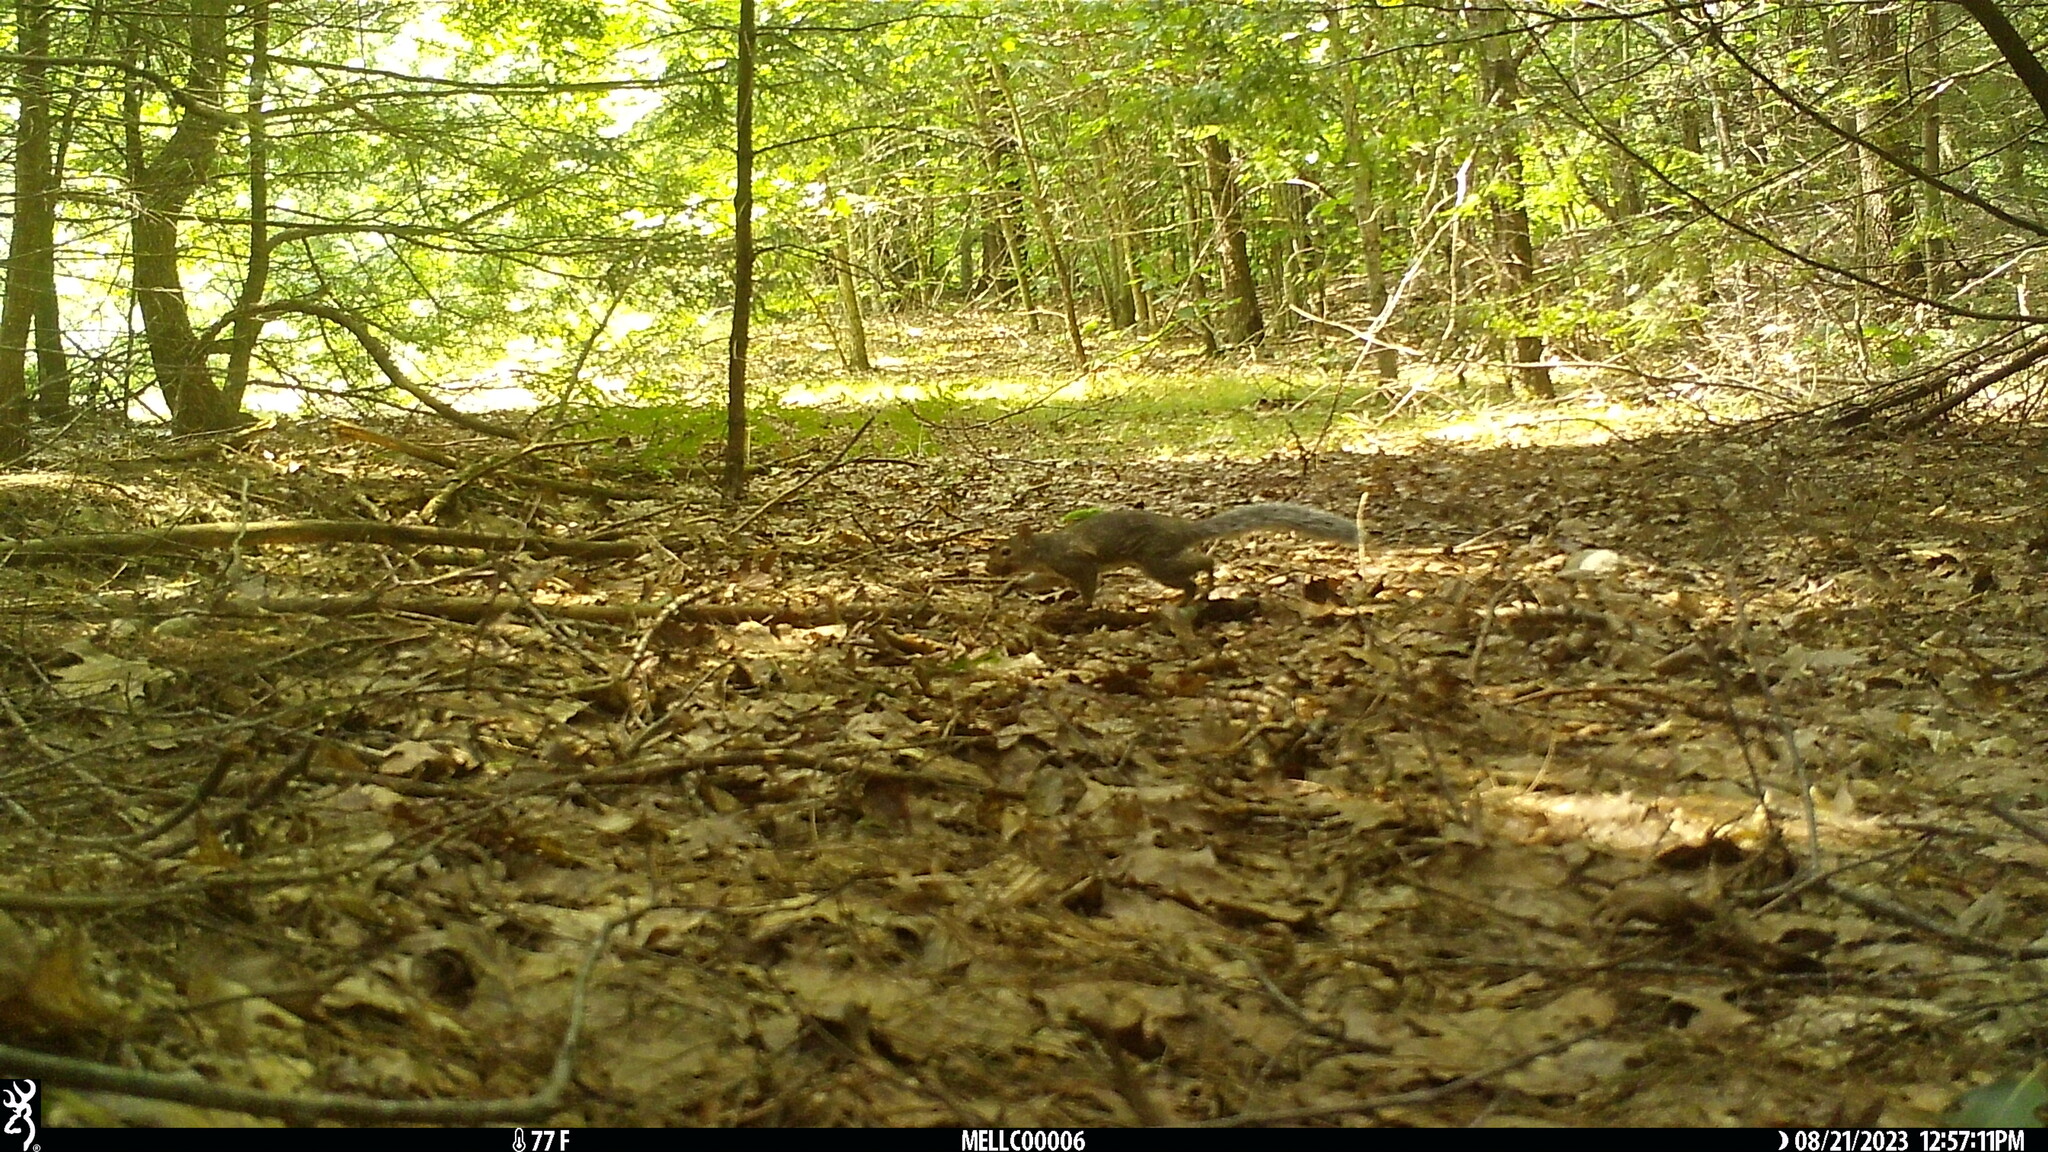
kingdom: Animalia
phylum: Chordata
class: Mammalia
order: Rodentia
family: Sciuridae
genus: Sciurus
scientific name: Sciurus carolinensis
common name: Eastern gray squirrel
